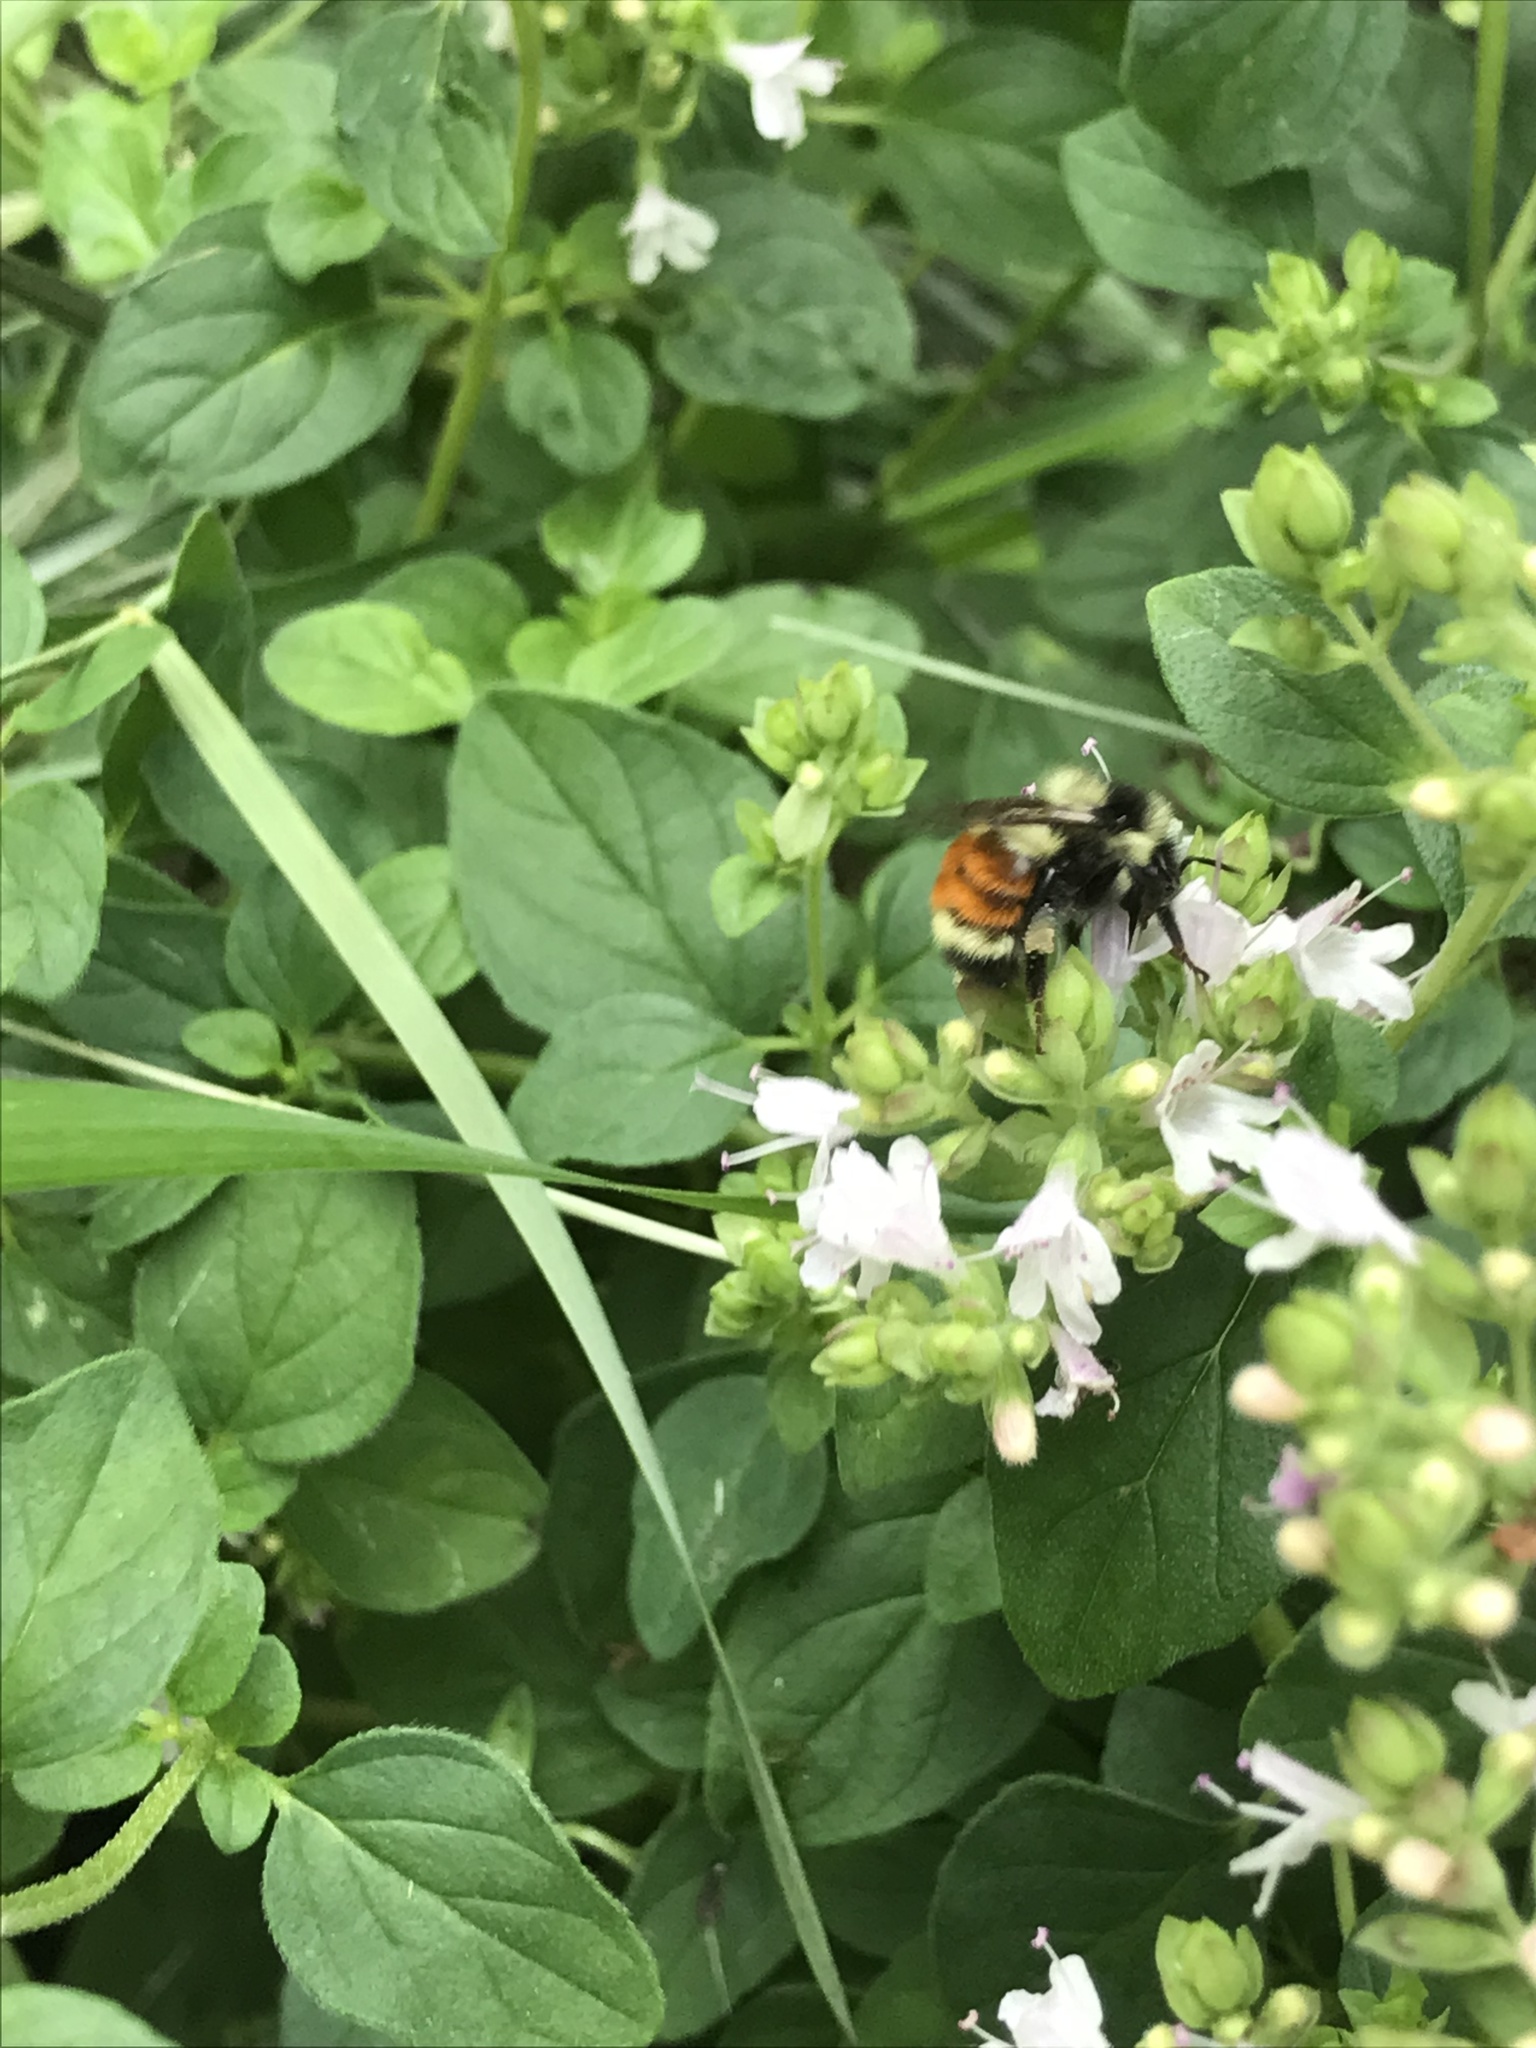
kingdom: Animalia
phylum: Arthropoda
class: Insecta
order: Hymenoptera
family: Apidae
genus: Bombus
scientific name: Bombus ternarius
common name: Tri-colored bumble bee
